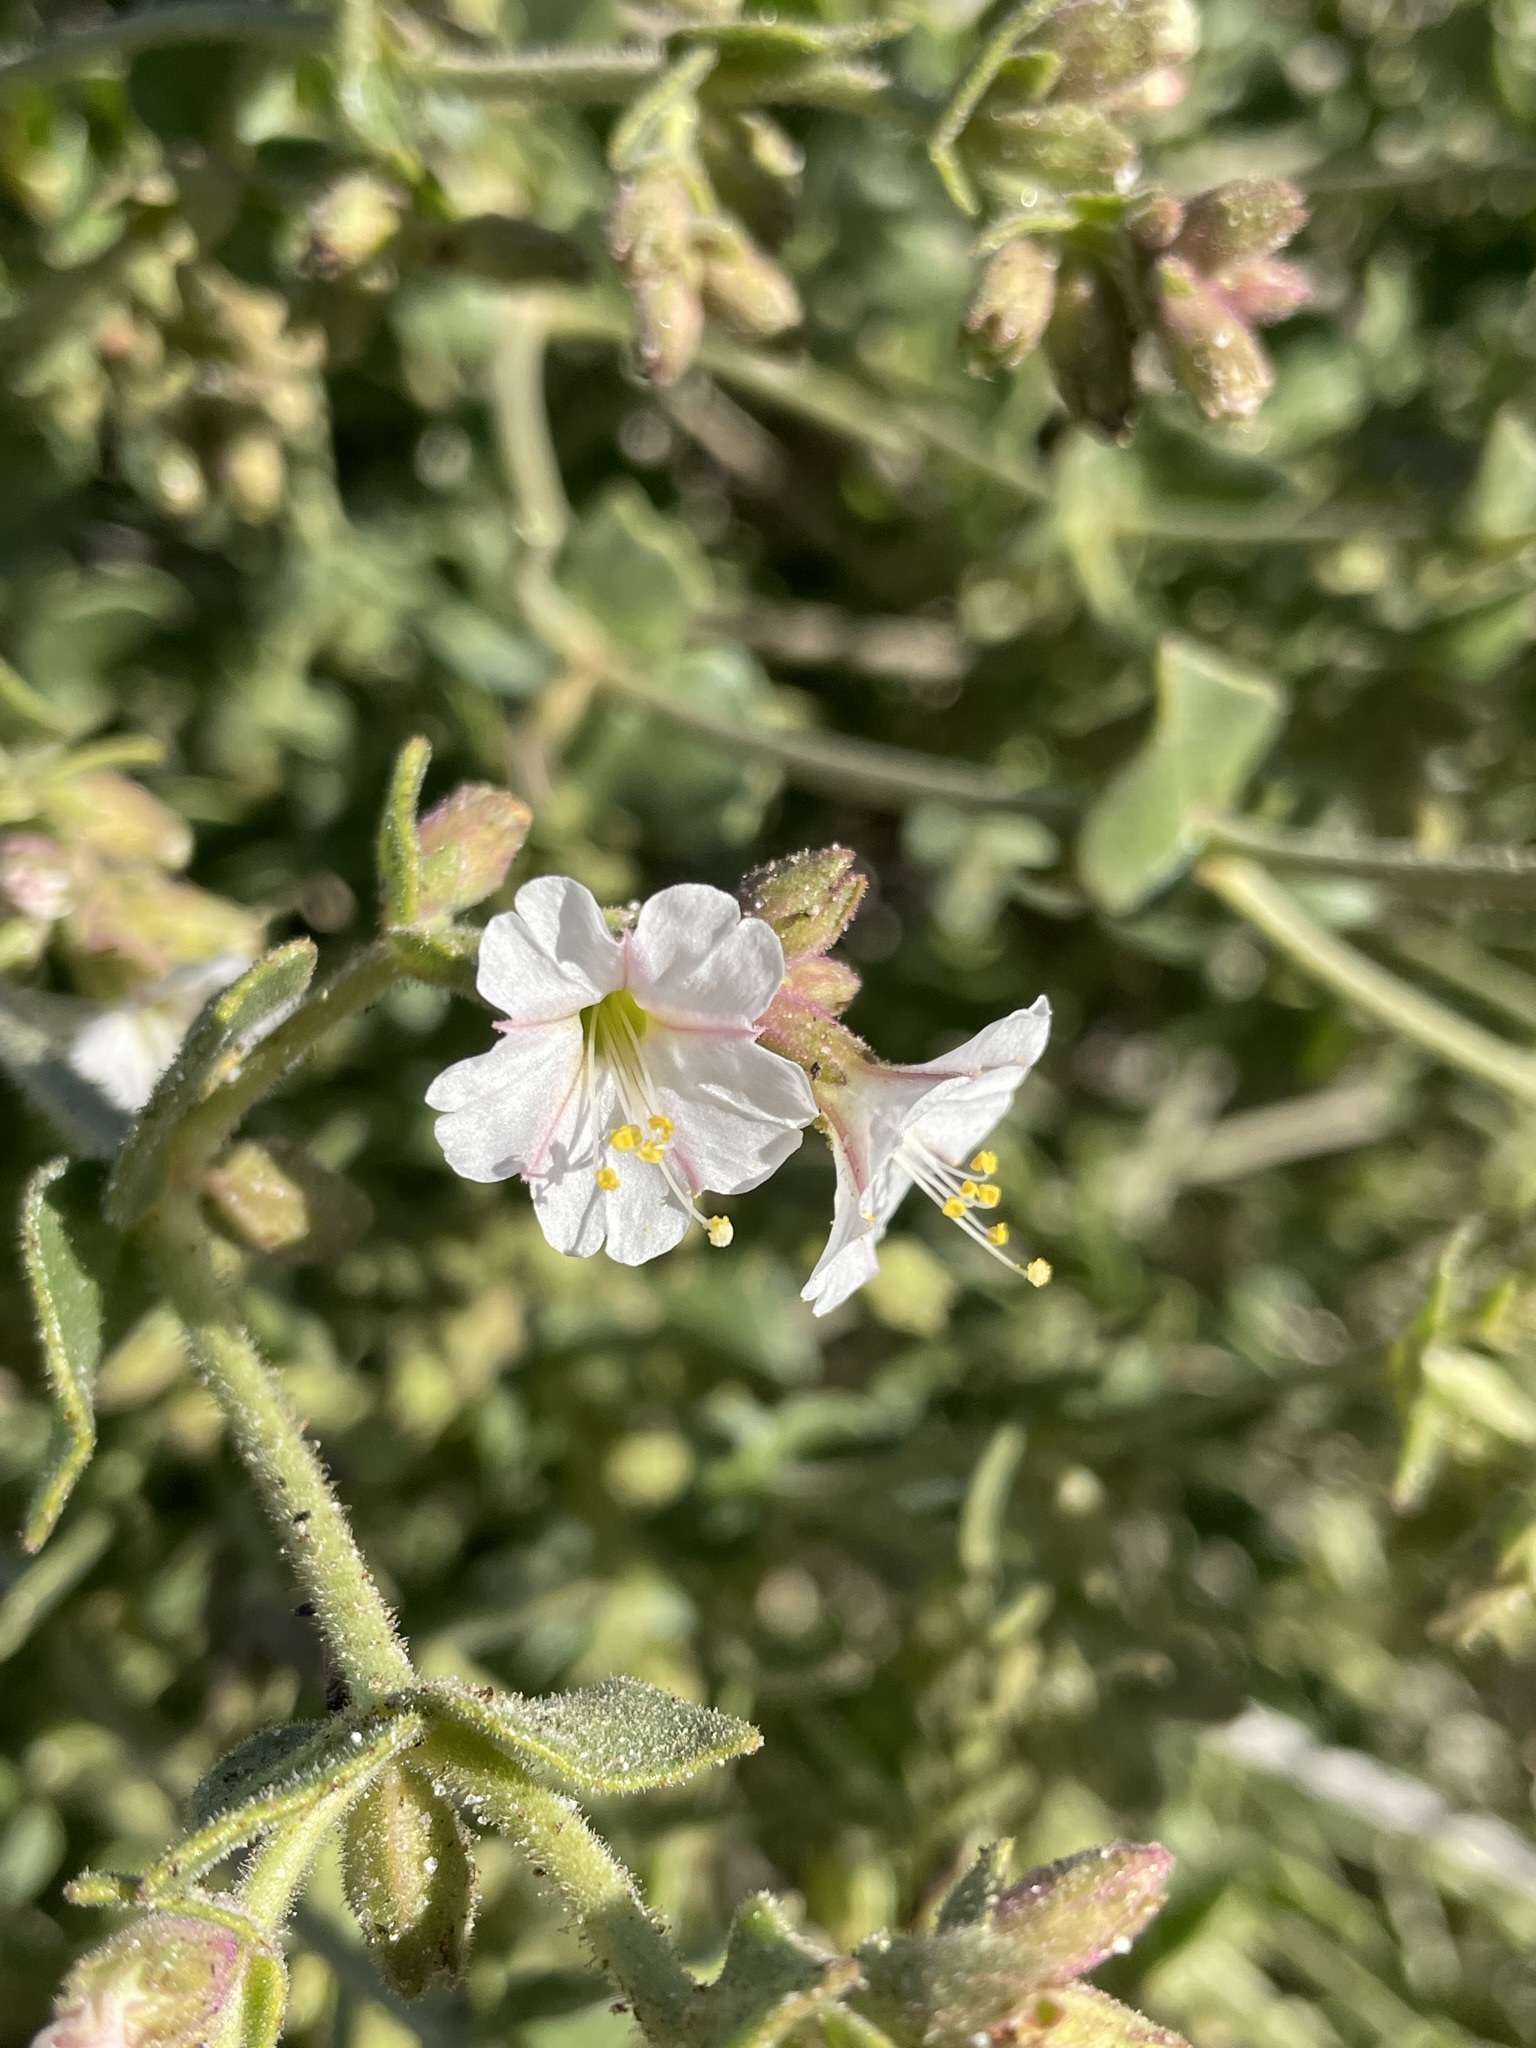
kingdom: Plantae
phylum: Tracheophyta
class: Magnoliopsida
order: Caryophyllales
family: Nyctaginaceae
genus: Mirabilis
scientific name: Mirabilis laevis
